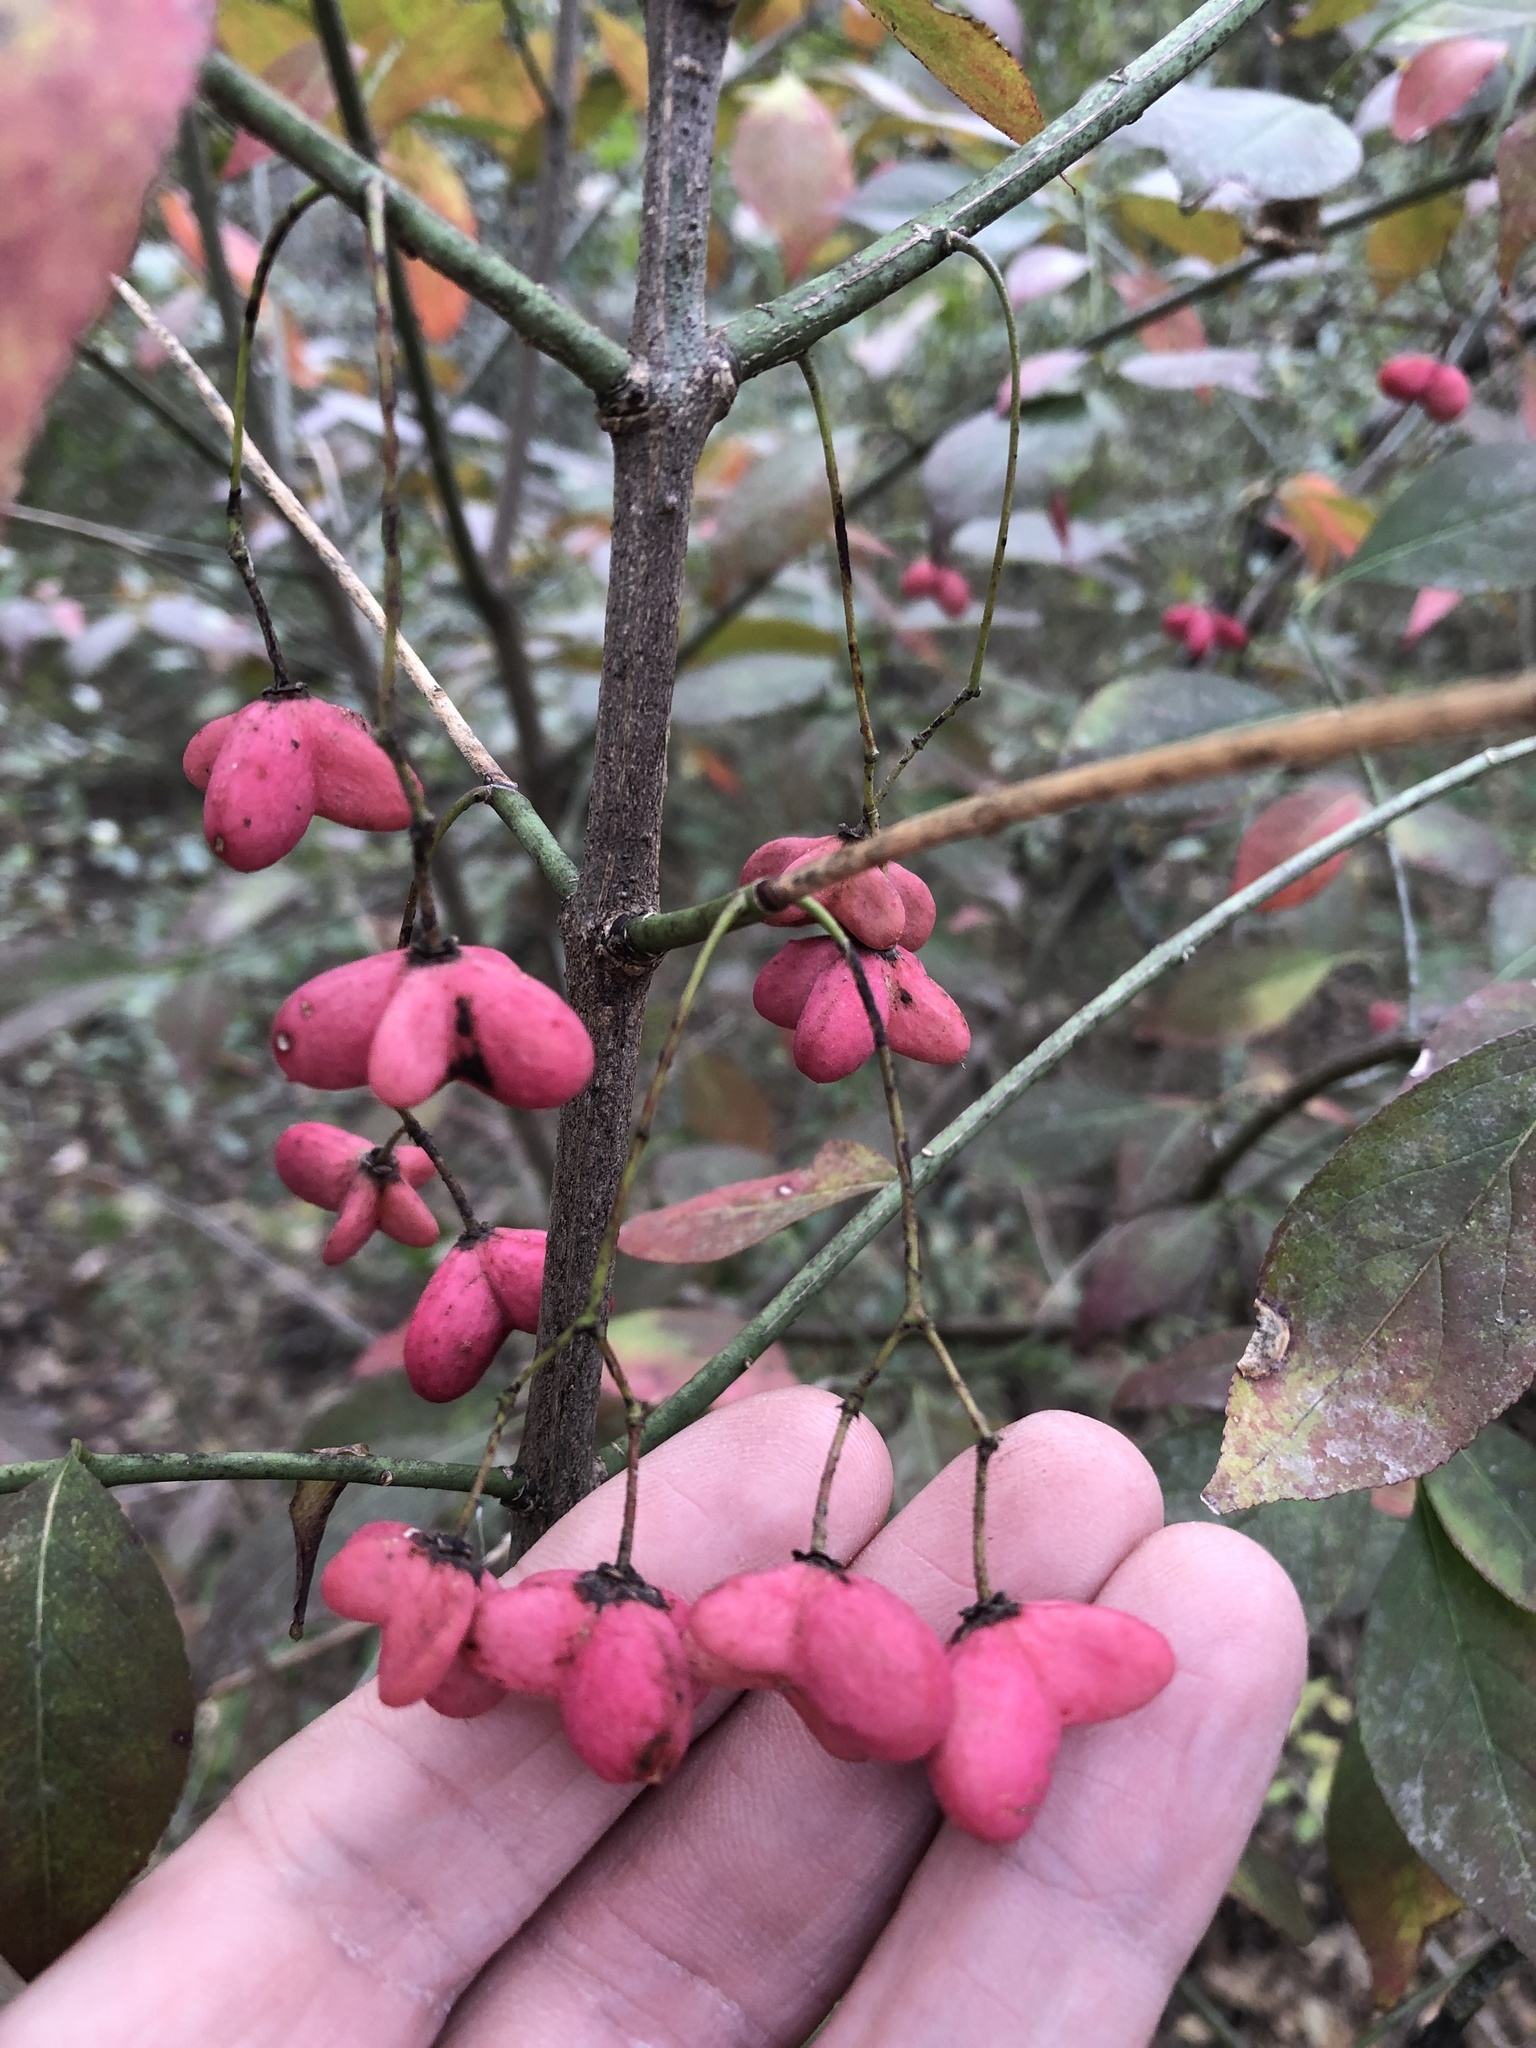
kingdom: Plantae
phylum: Tracheophyta
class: Magnoliopsida
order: Celastrales
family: Celastraceae
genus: Euonymus
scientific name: Euonymus atropurpureus
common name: Eastern wahoo
